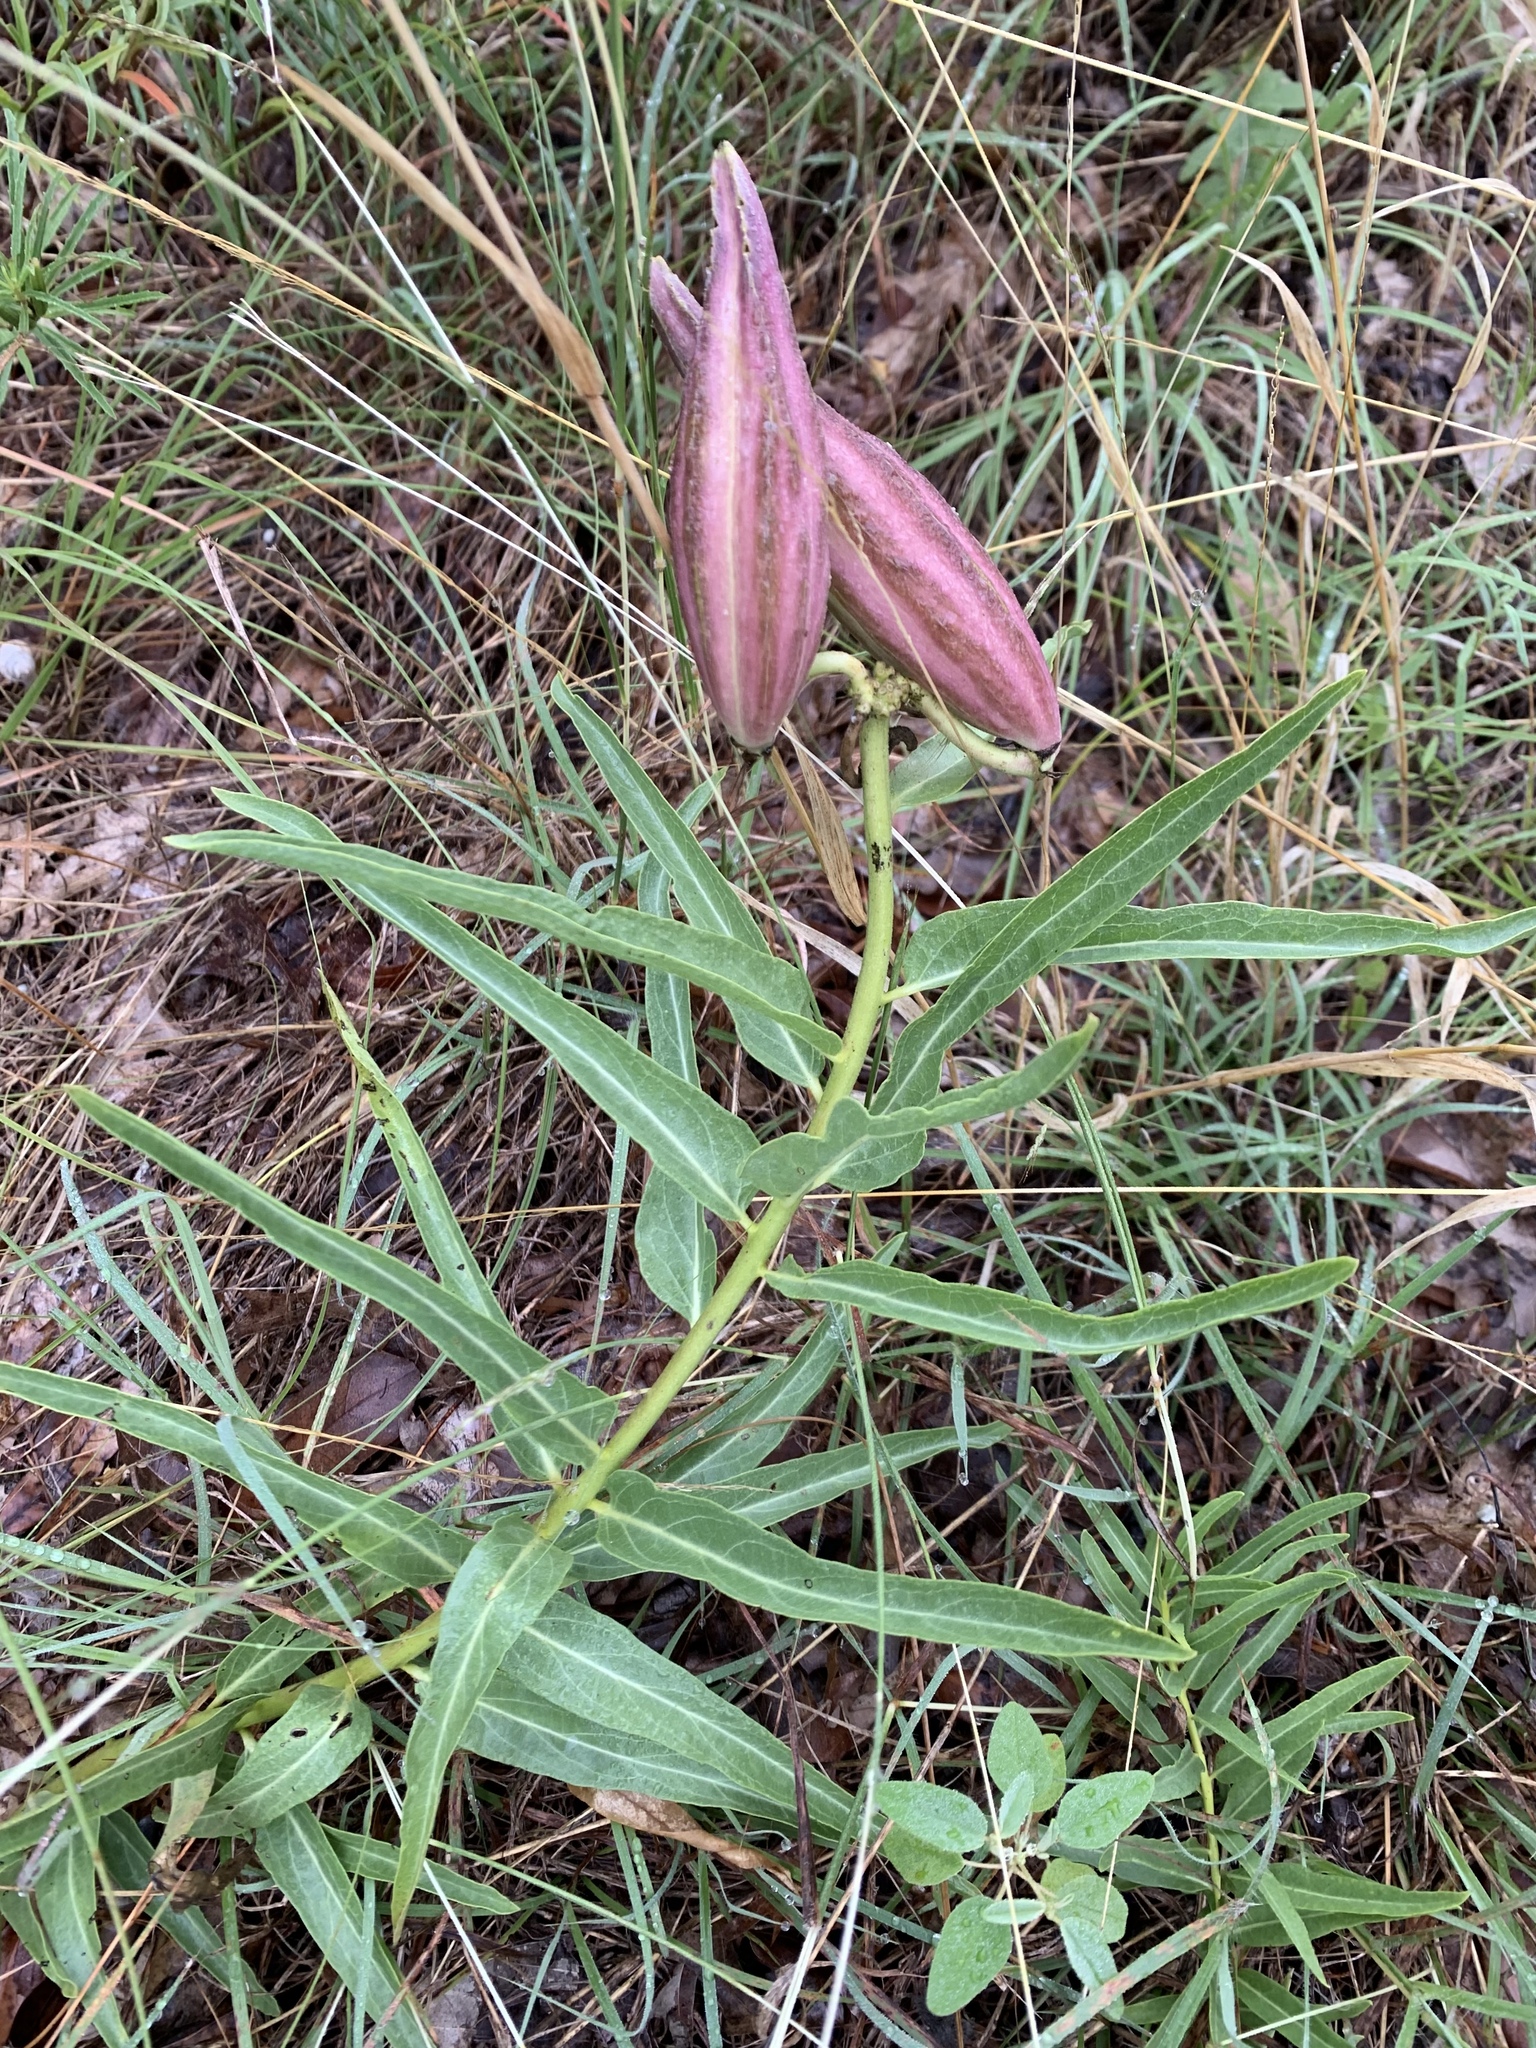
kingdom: Plantae
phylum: Tracheophyta
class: Magnoliopsida
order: Gentianales
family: Apocynaceae
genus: Asclepias
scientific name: Asclepias asperula
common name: Antelope horns
